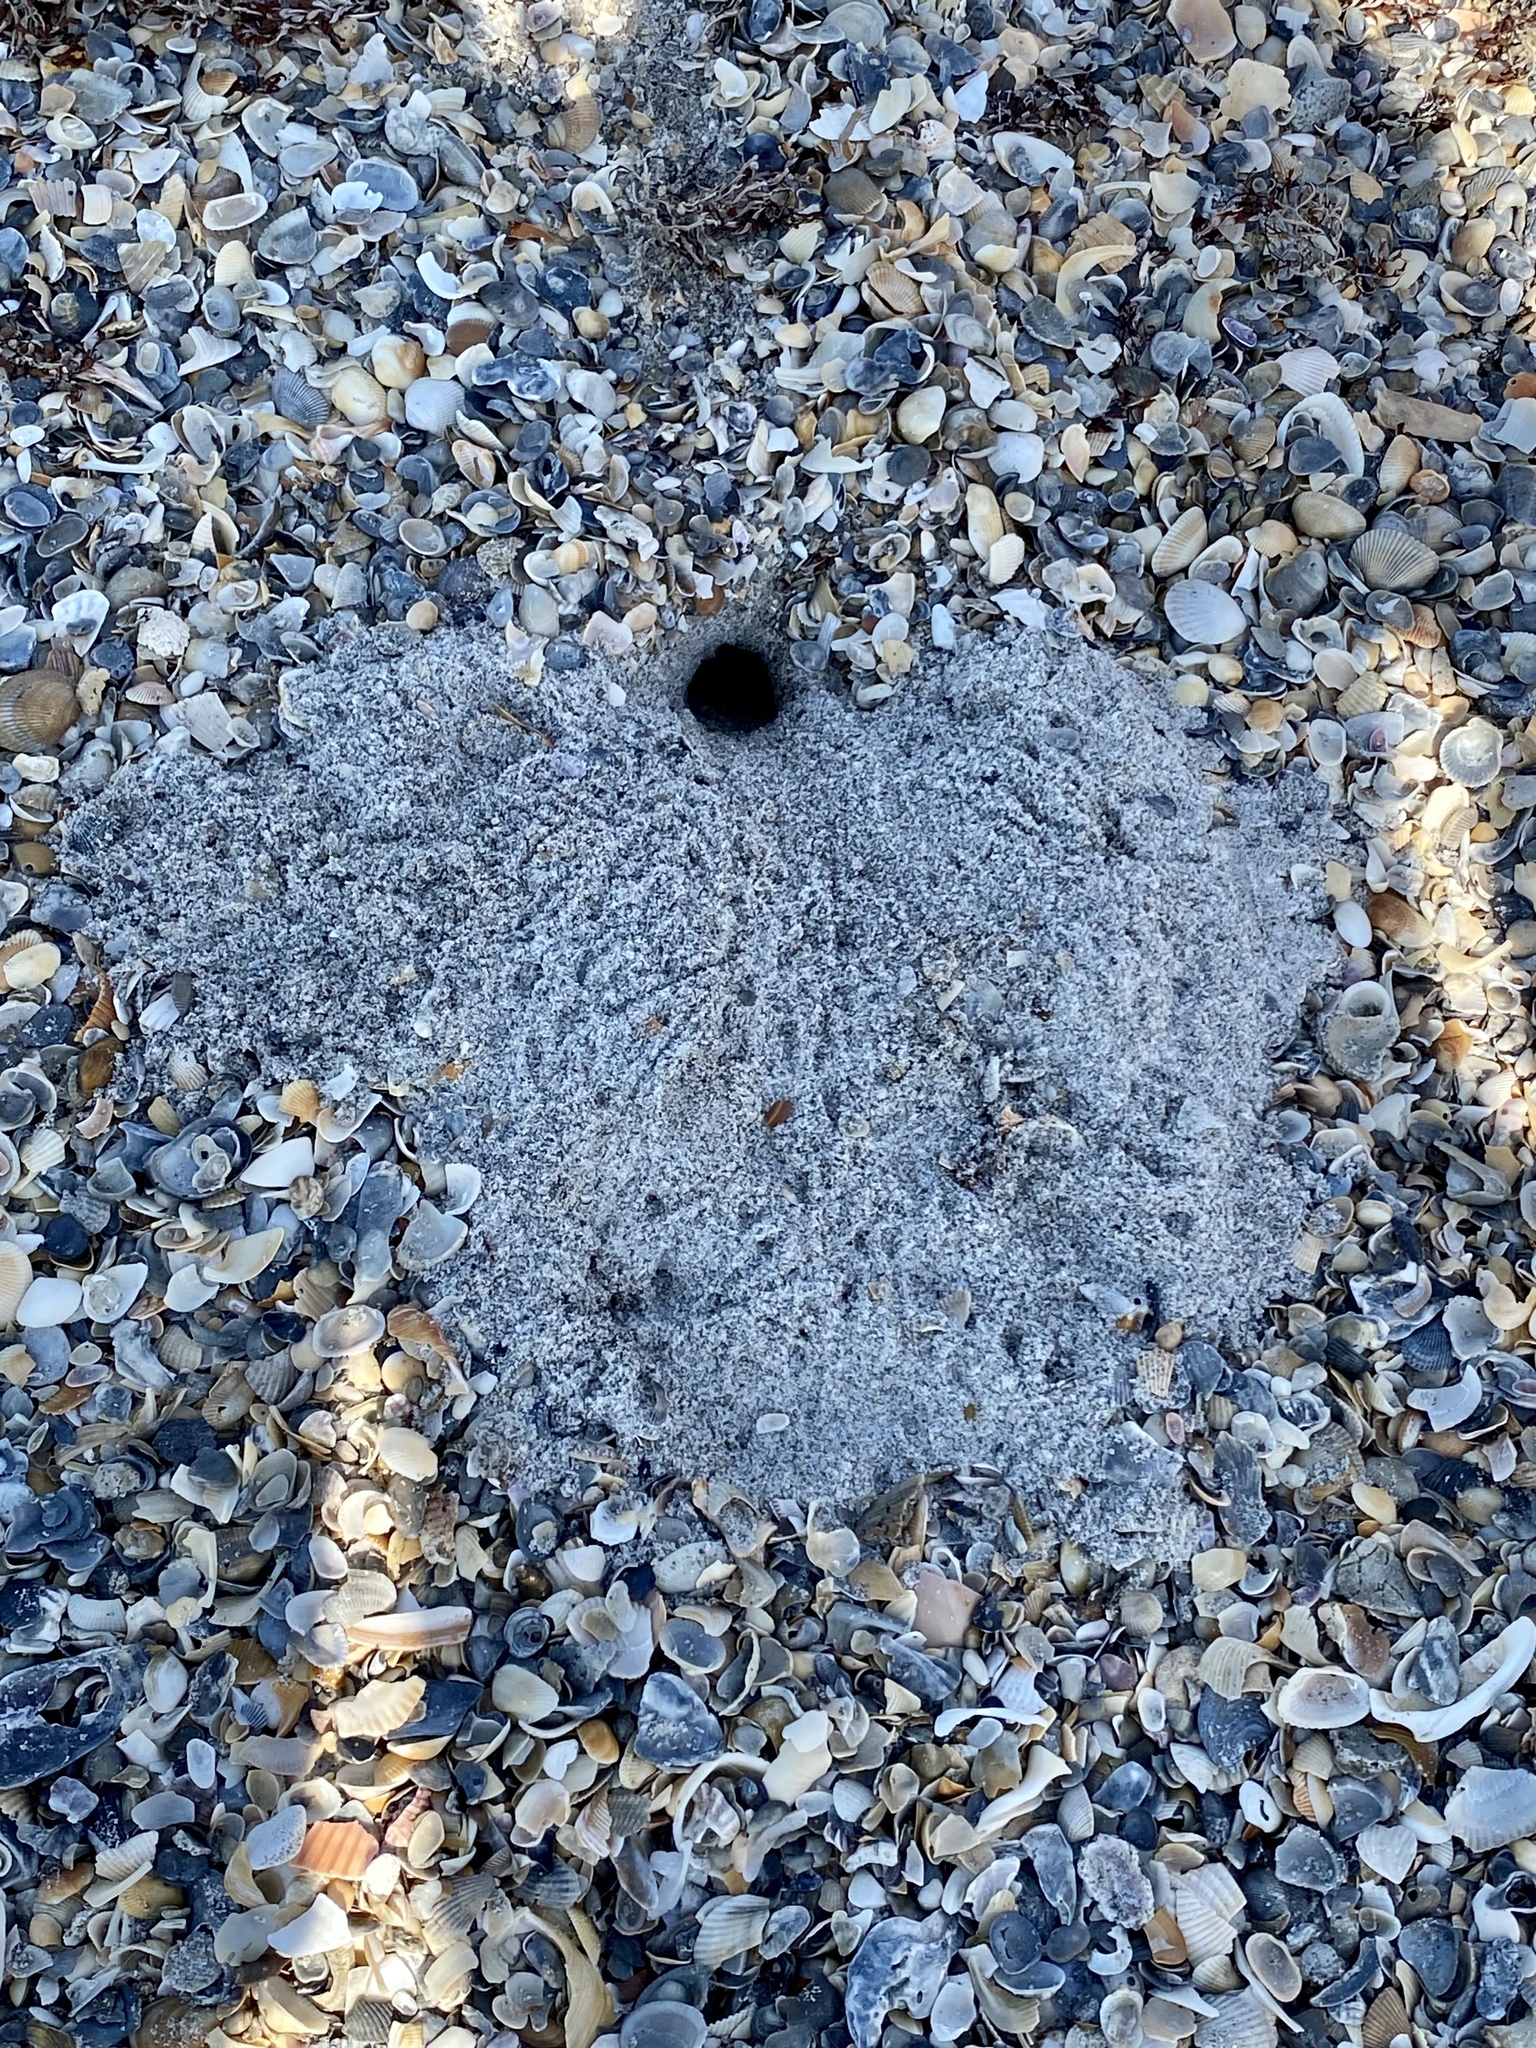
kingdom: Animalia
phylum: Arthropoda
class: Malacostraca
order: Decapoda
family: Ocypodidae
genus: Ocypode
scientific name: Ocypode quadrata
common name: Ghost crab
